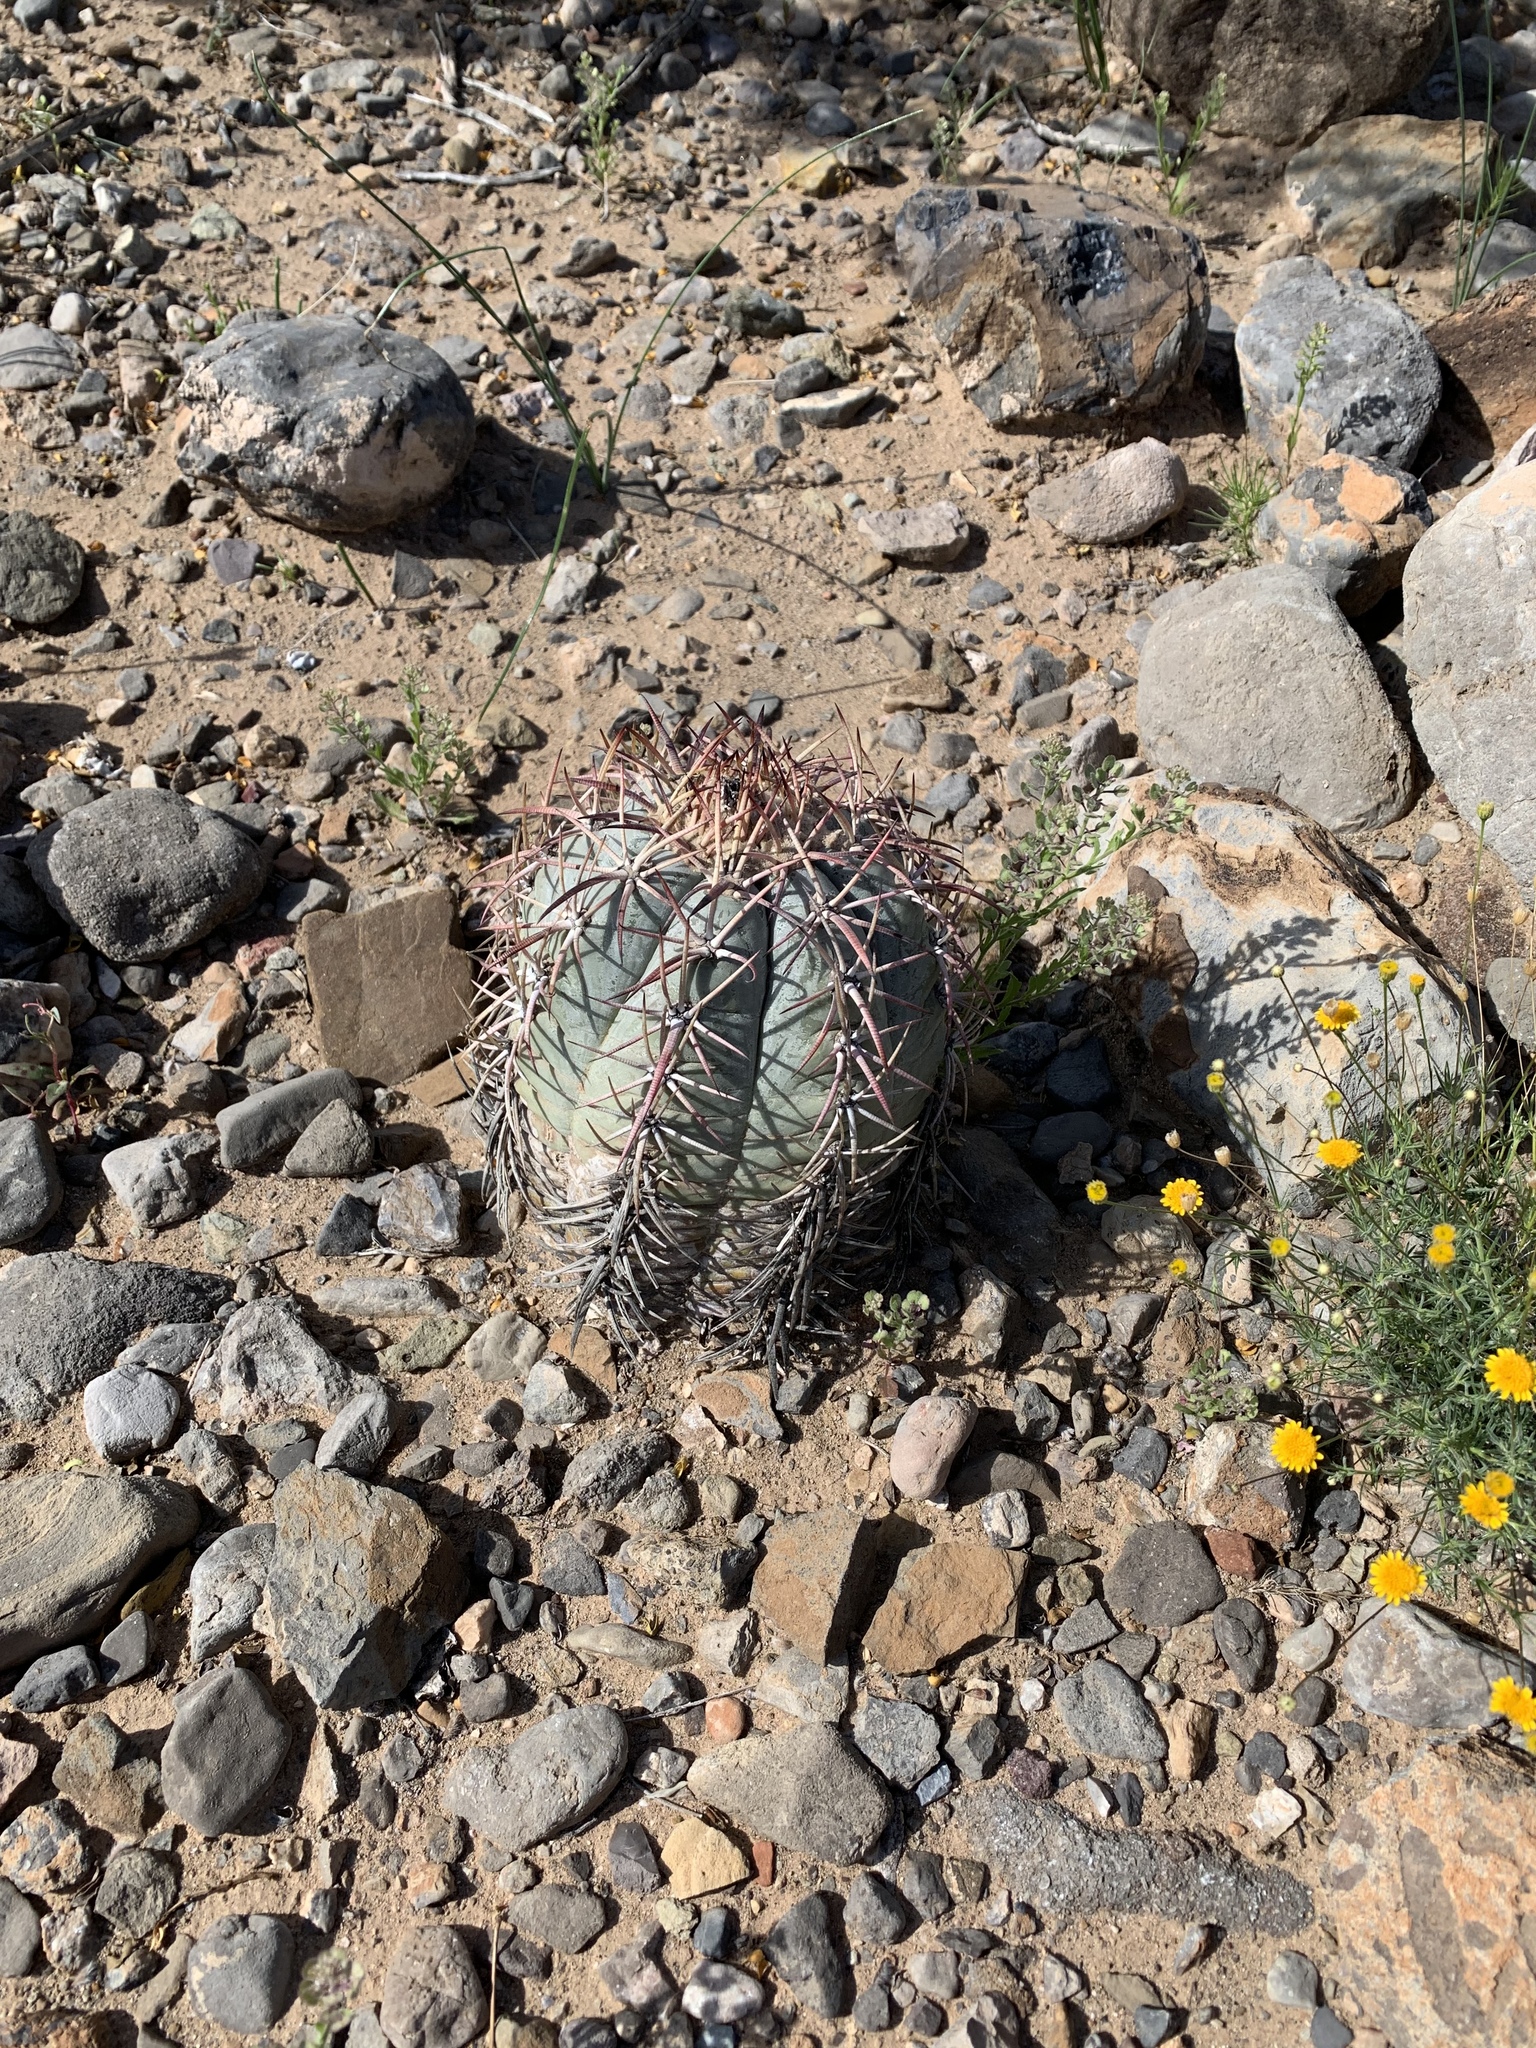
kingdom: Plantae
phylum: Tracheophyta
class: Magnoliopsida
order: Caryophyllales
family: Cactaceae
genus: Echinocactus
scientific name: Echinocactus horizonthalonius
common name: Devilshead
